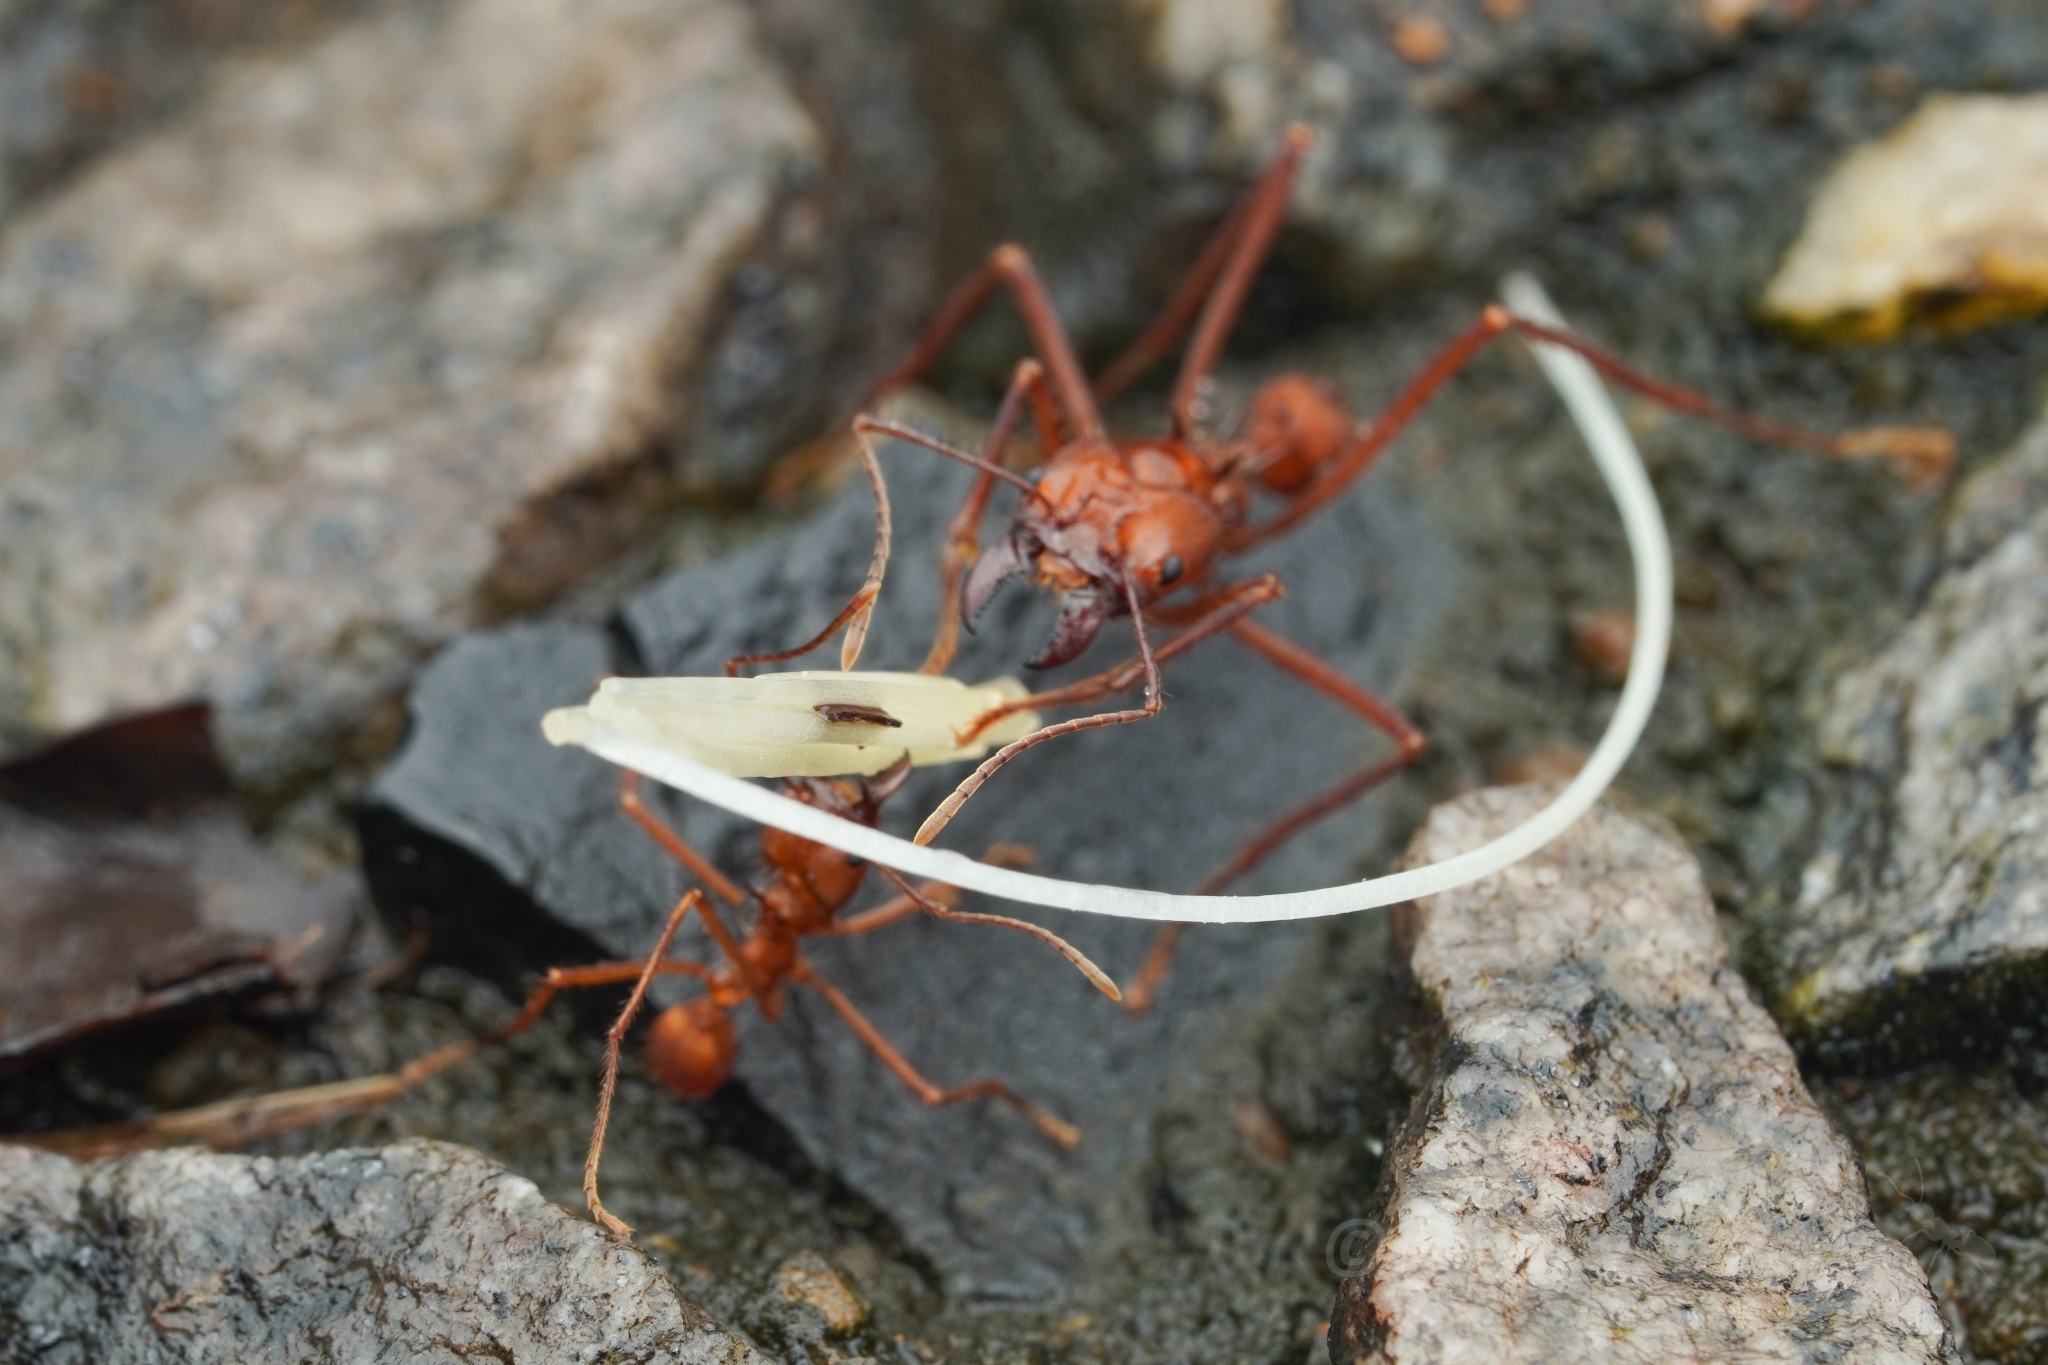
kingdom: Animalia
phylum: Arthropoda
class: Insecta
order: Hymenoptera
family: Formicidae
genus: Atta
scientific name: Atta cephalotes
